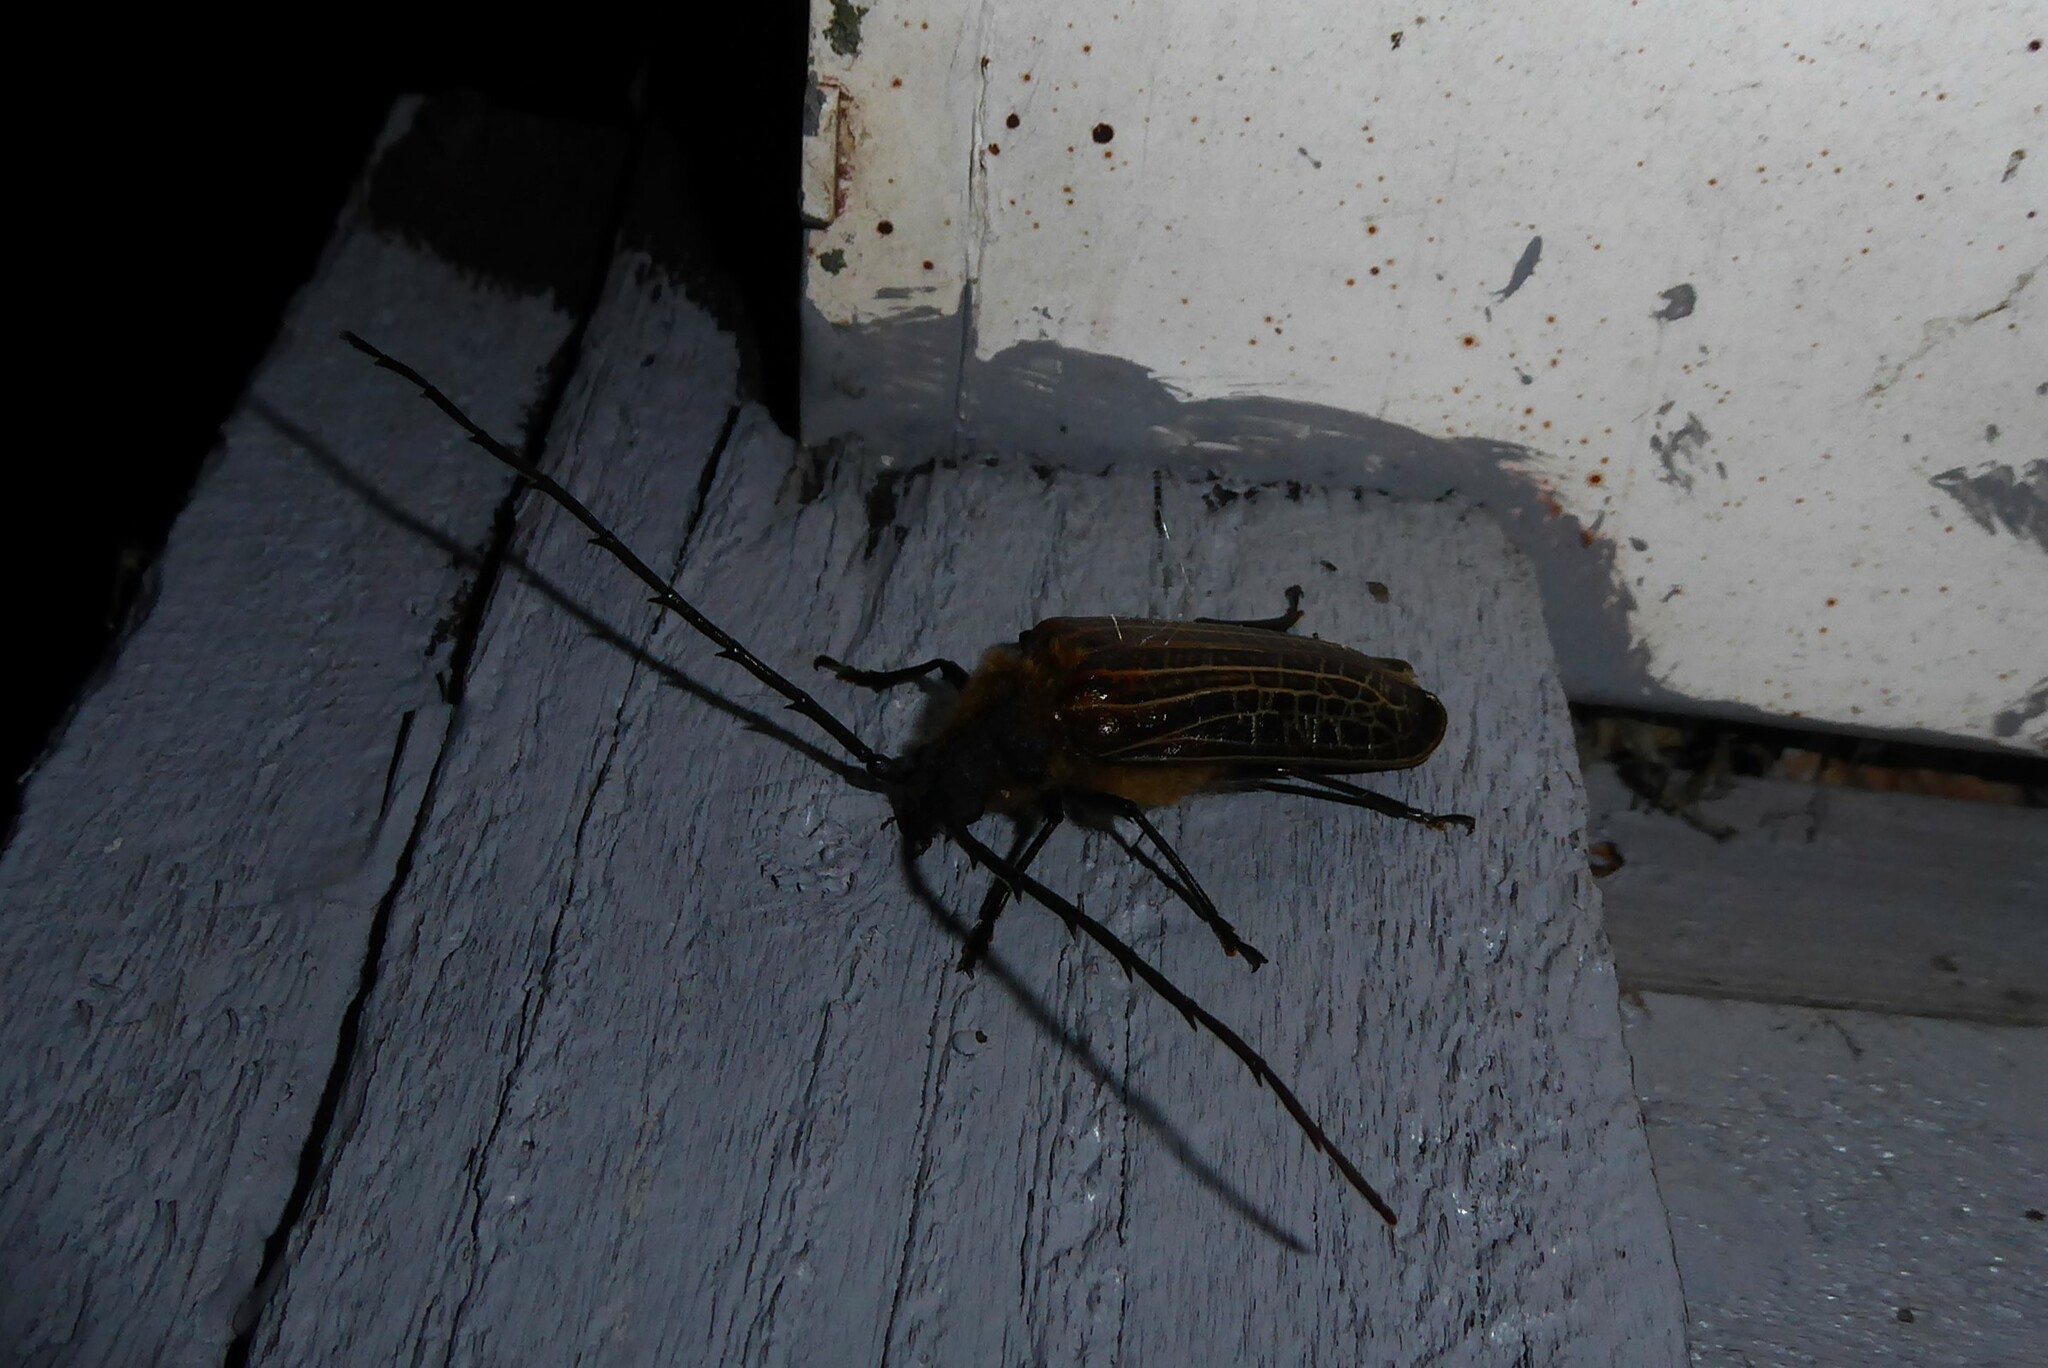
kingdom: Animalia
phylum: Arthropoda
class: Insecta
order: Coleoptera
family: Cerambycidae
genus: Prionoplus
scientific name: Prionoplus reticularis
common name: Huhu beetle
